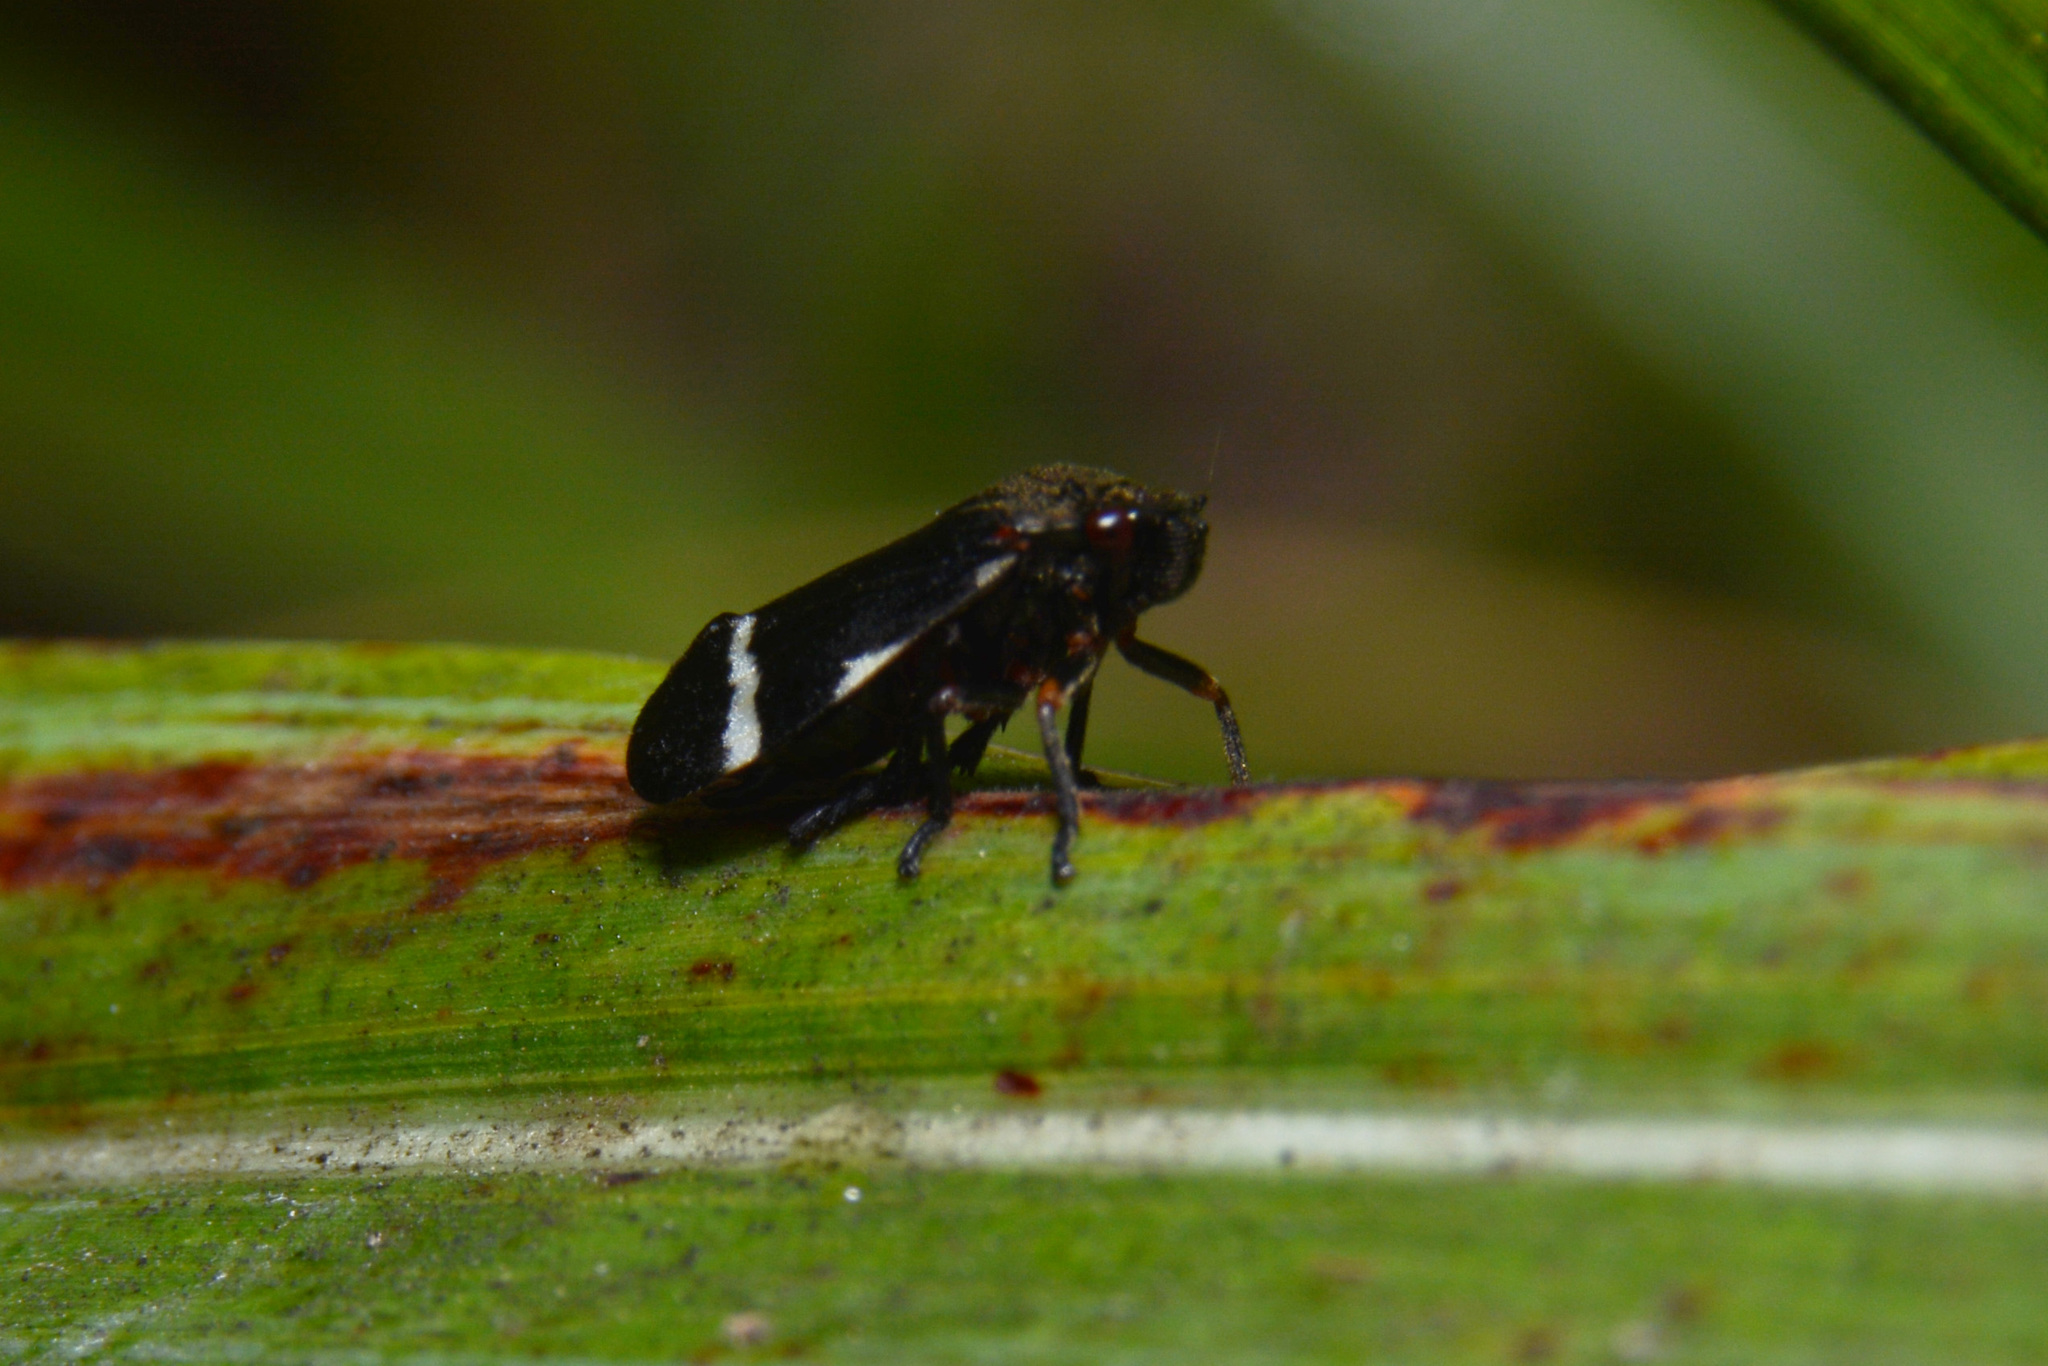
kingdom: Animalia
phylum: Arthropoda
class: Insecta
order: Hemiptera
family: Cercopidae
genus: Notozulia
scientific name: Notozulia entreriana
